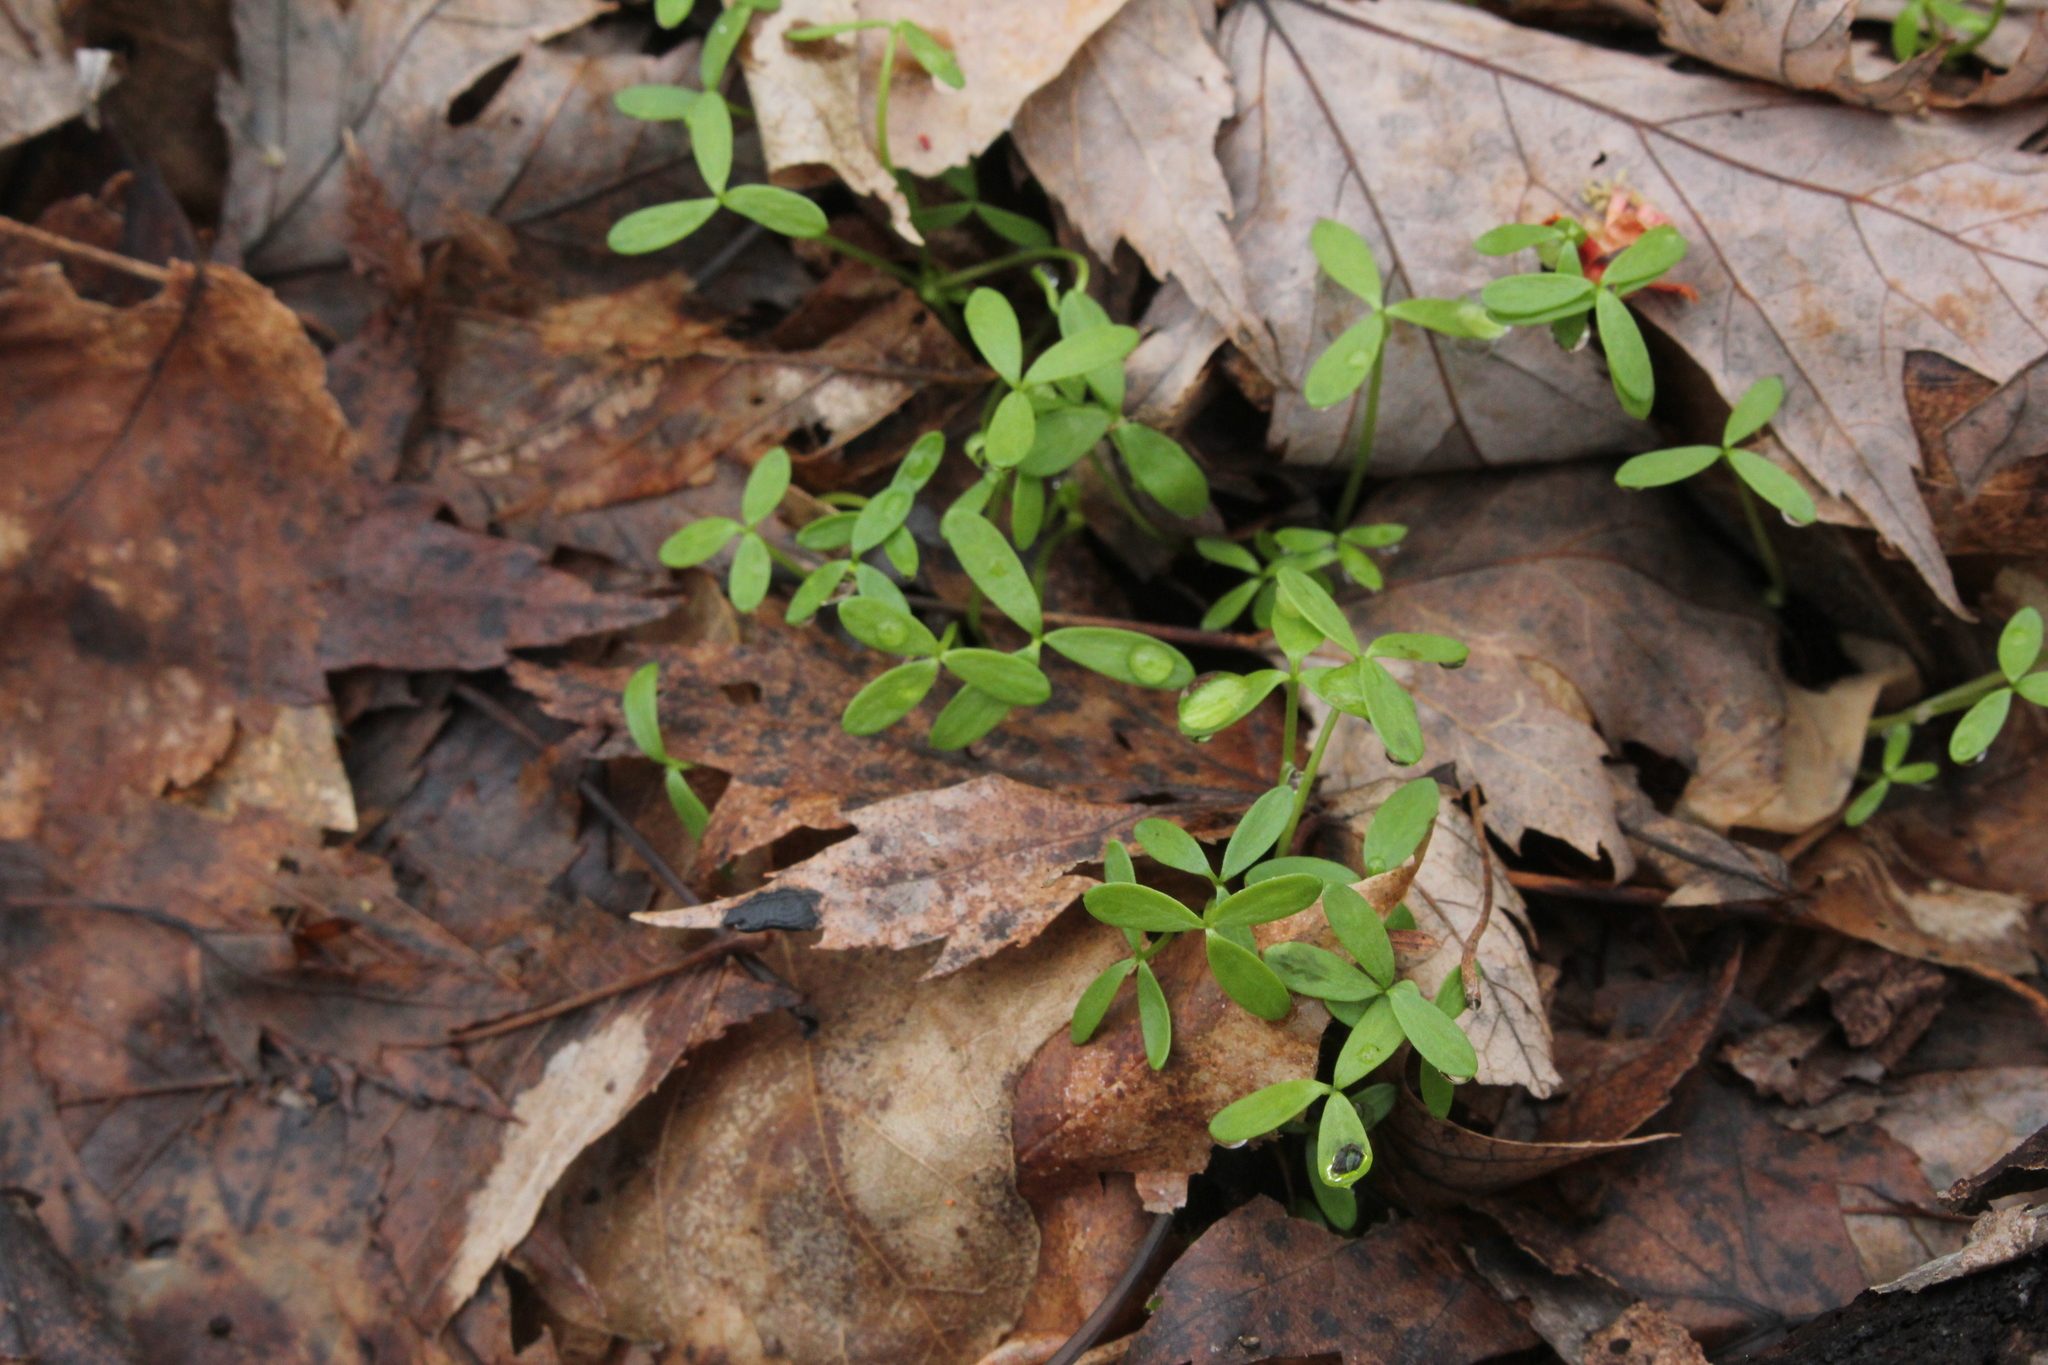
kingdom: Plantae
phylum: Tracheophyta
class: Magnoliopsida
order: Brassicales
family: Limnanthaceae
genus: Floerkea
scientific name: Floerkea proserpinacoides
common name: False mermaid
